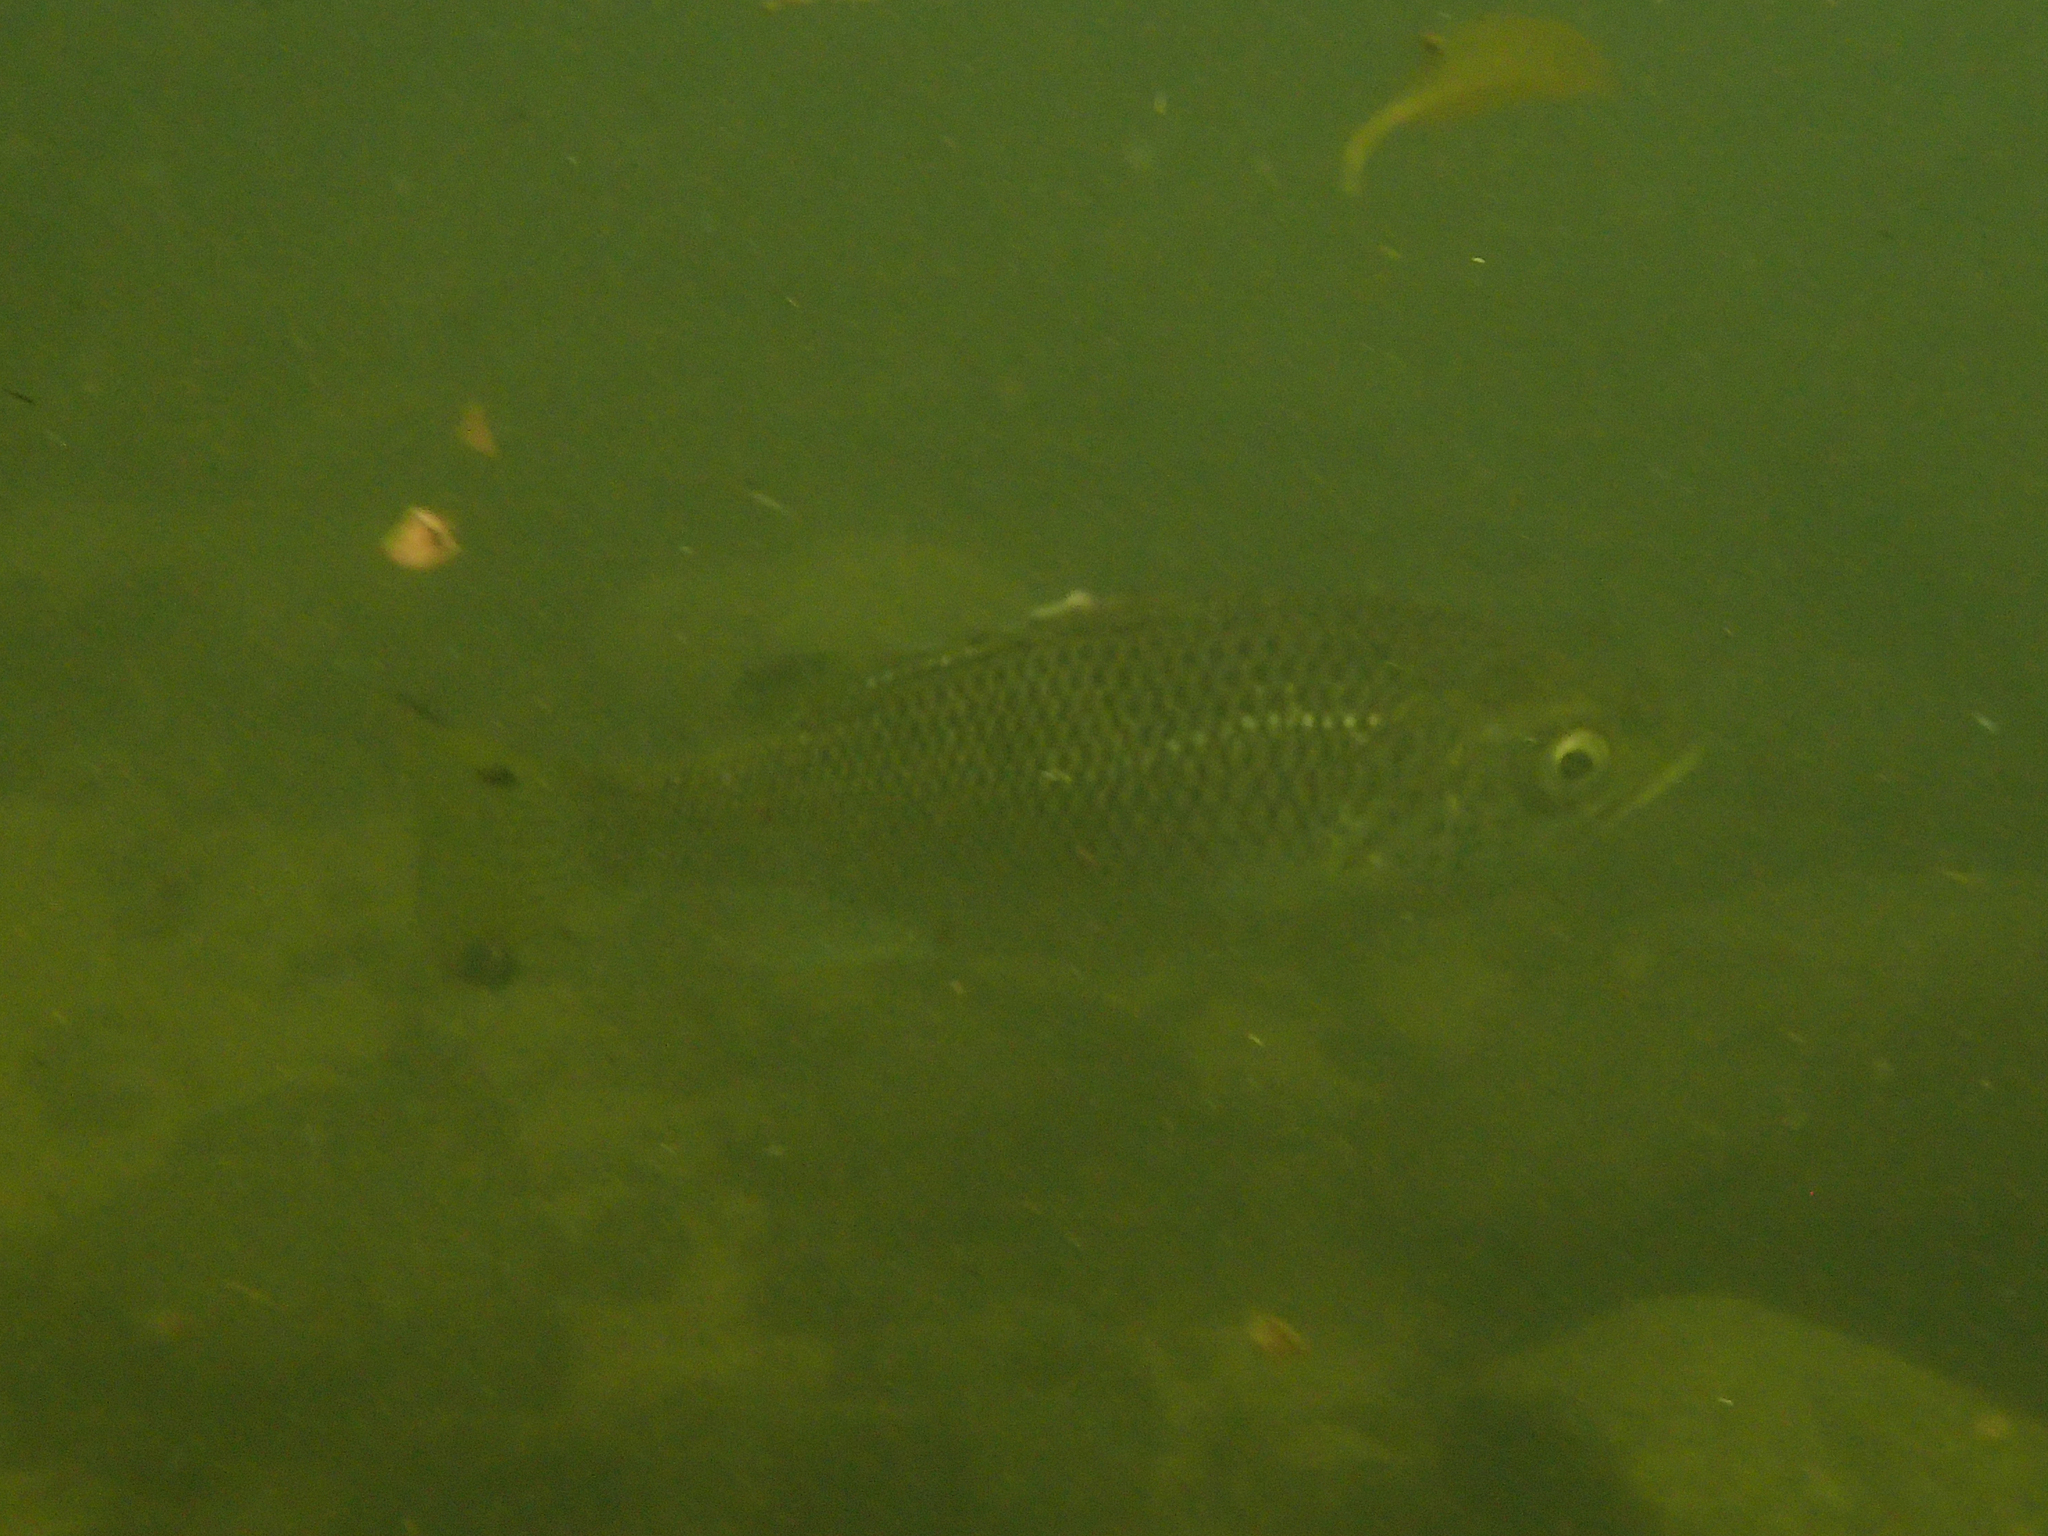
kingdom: Animalia
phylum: Chordata
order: Perciformes
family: Kuhliidae
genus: Kuhlia
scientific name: Kuhlia rupestris
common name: Rock flagtail
